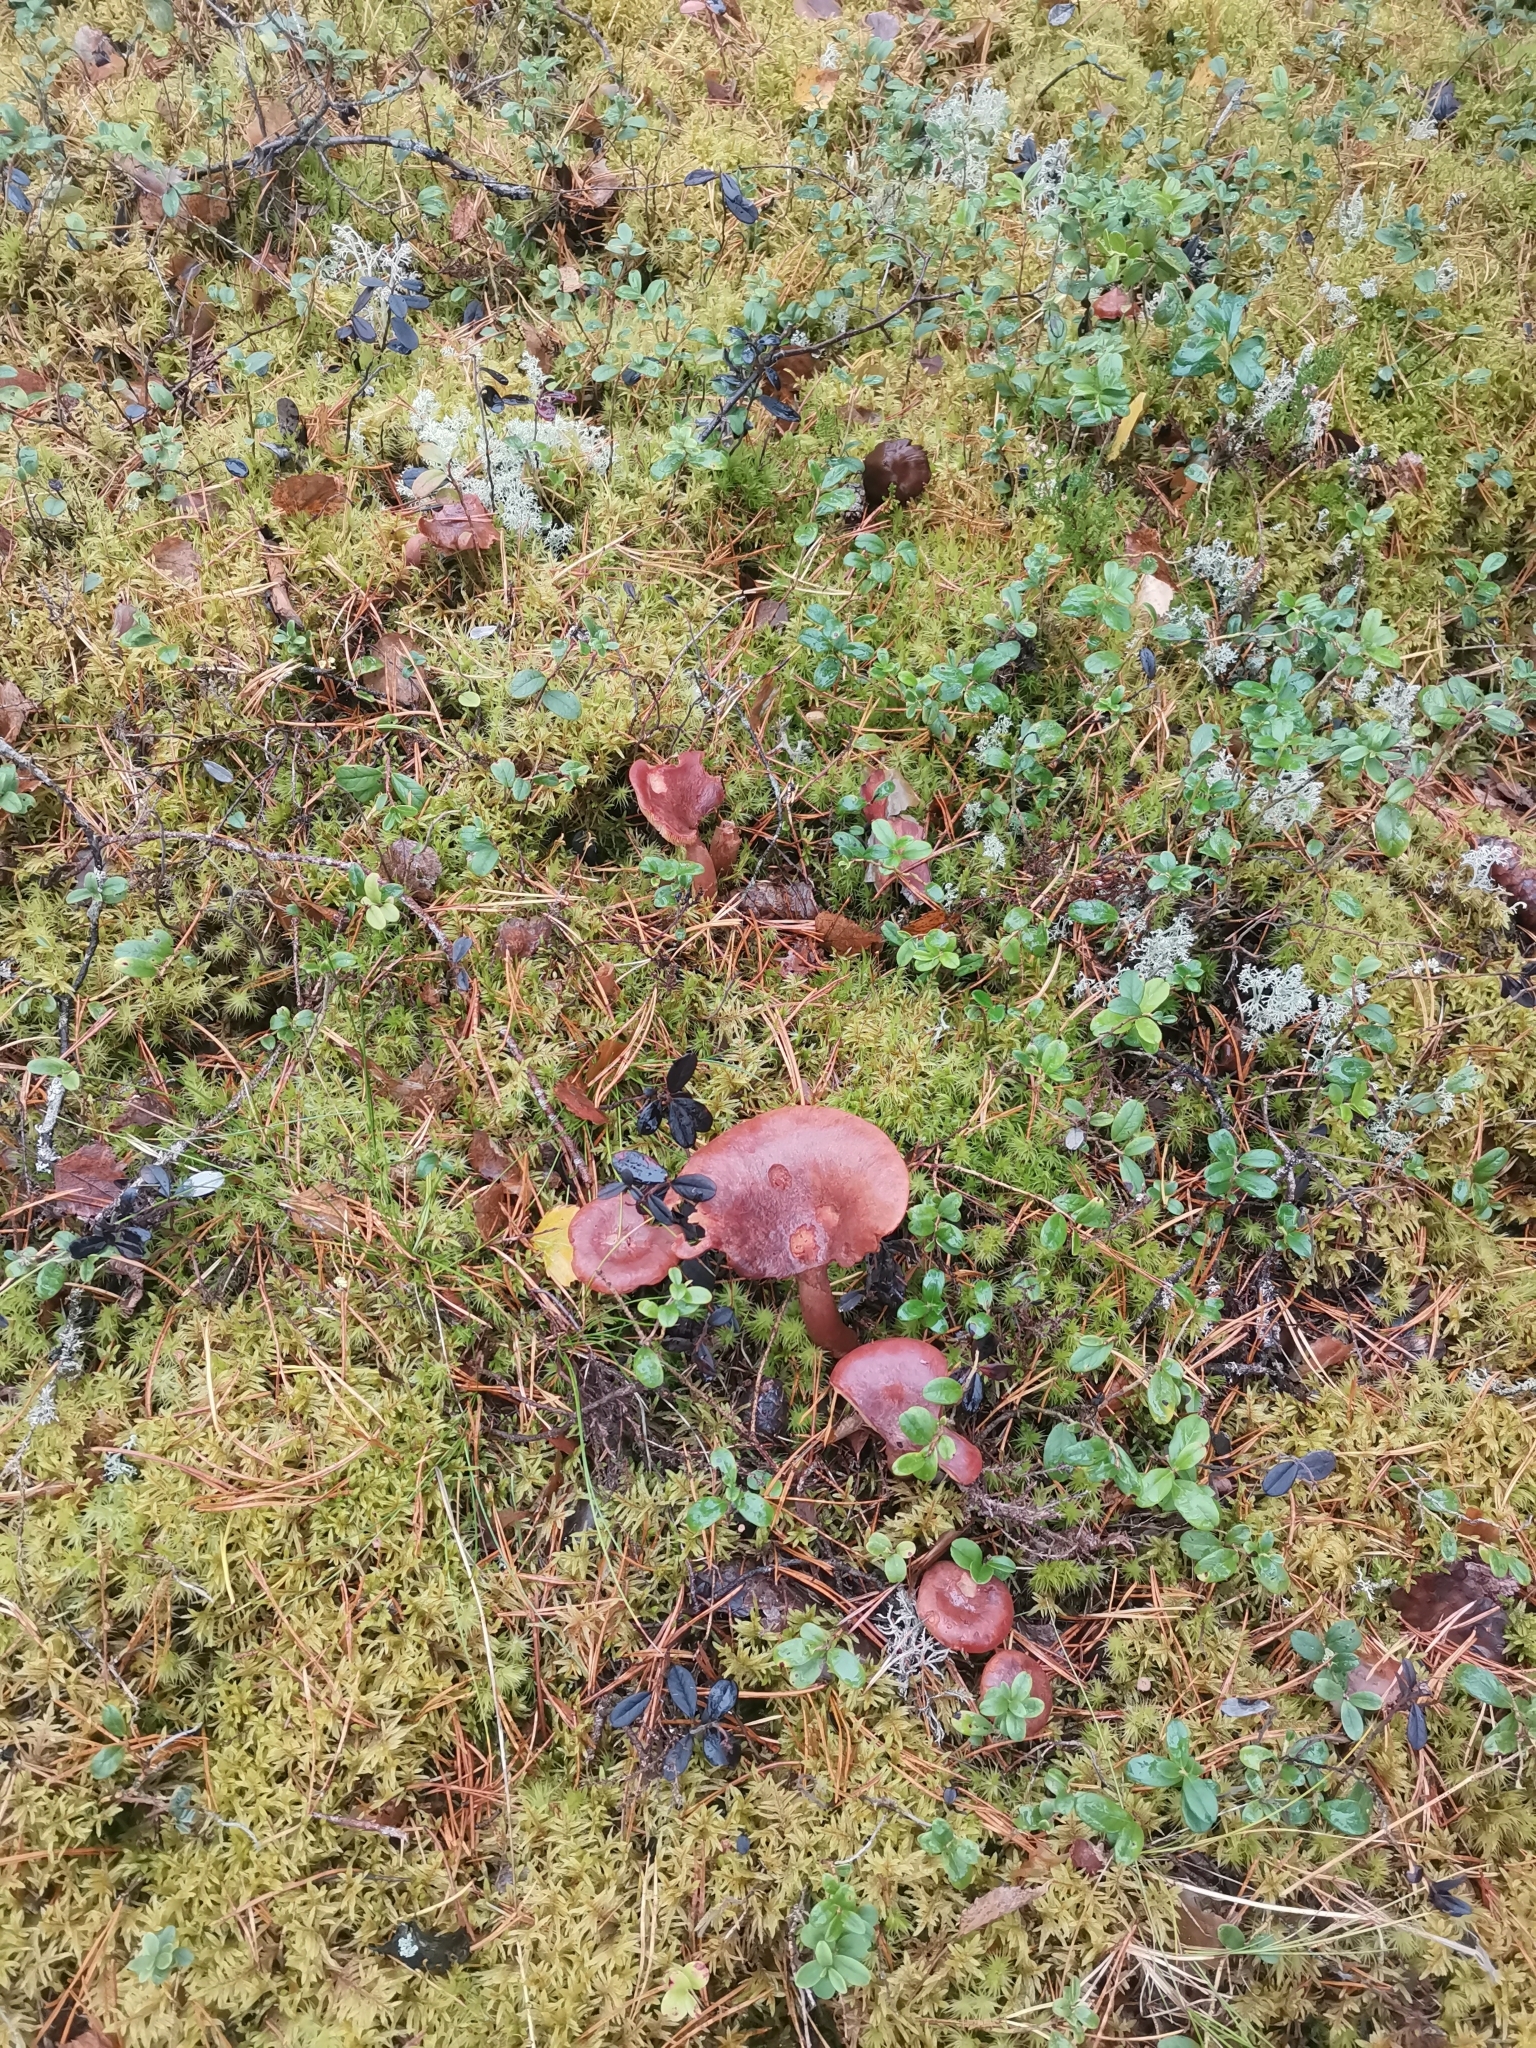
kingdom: Fungi
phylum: Basidiomycota
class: Agaricomycetes
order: Russulales
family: Russulaceae
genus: Lactarius
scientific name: Lactarius rufus
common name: Rufous milk-cap
